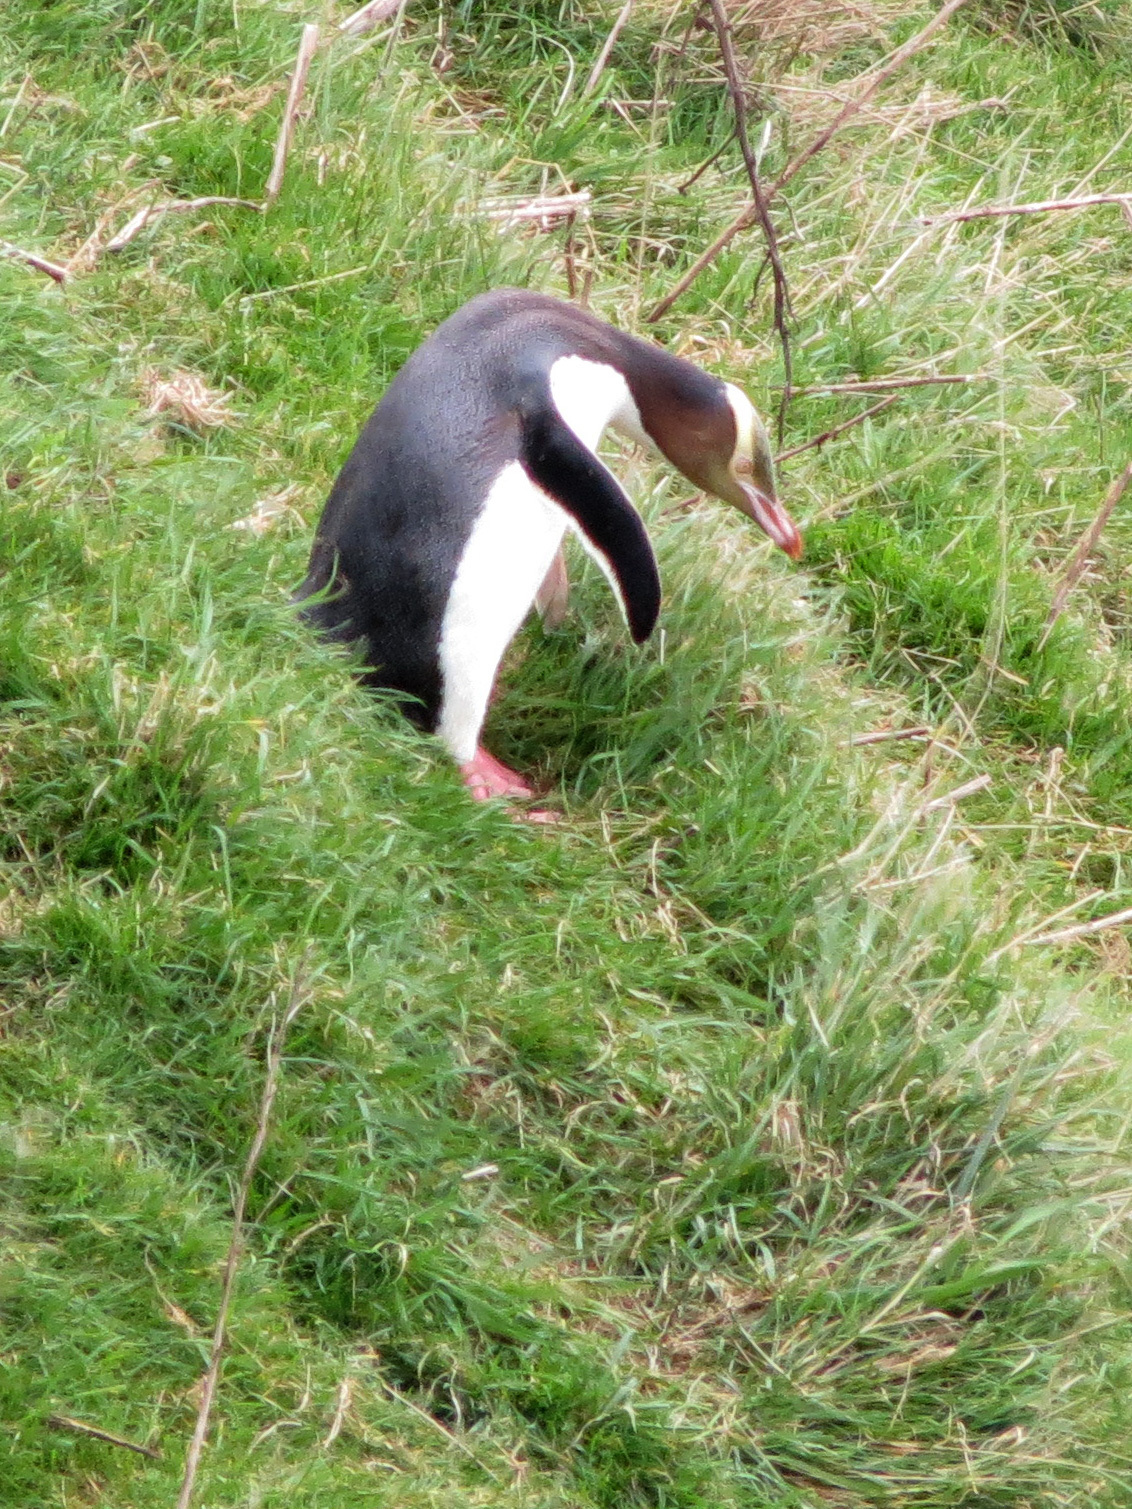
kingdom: Animalia
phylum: Chordata
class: Aves
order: Sphenisciformes
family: Spheniscidae
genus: Megadyptes
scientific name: Megadyptes antipodes
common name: Yellow-eyed penguin
